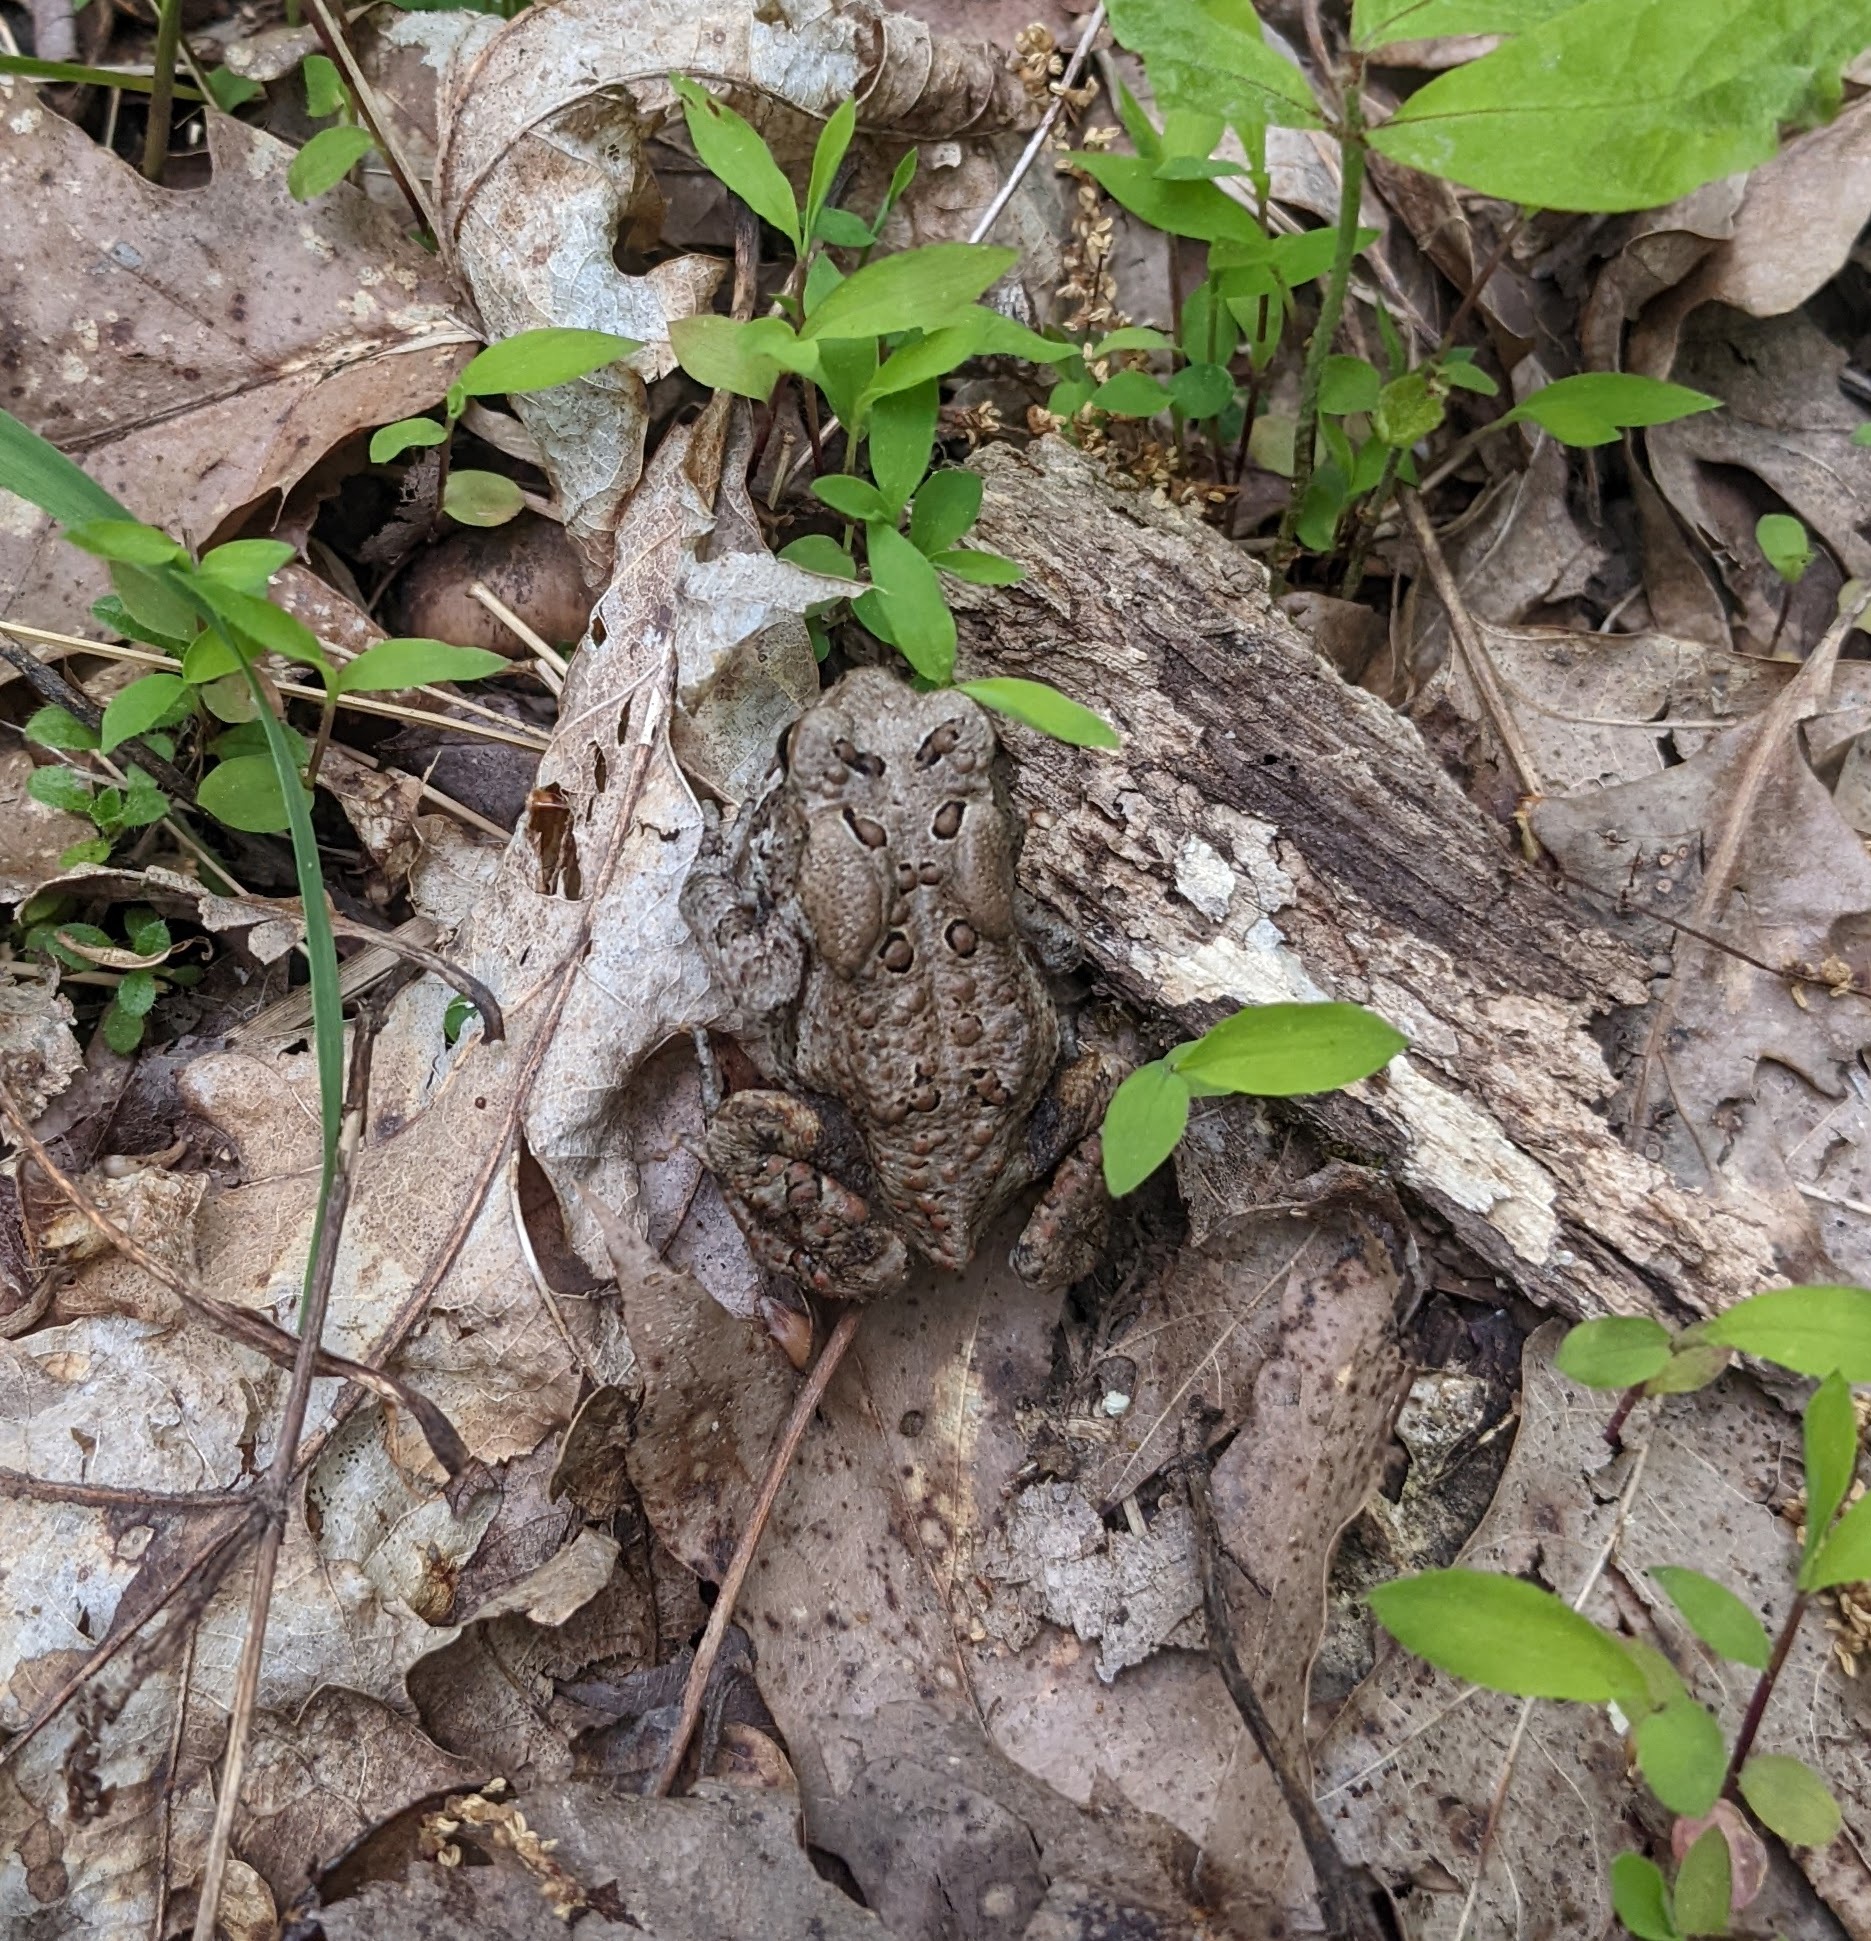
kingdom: Animalia
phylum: Chordata
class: Amphibia
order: Anura
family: Bufonidae
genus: Anaxyrus
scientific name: Anaxyrus americanus
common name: American toad
